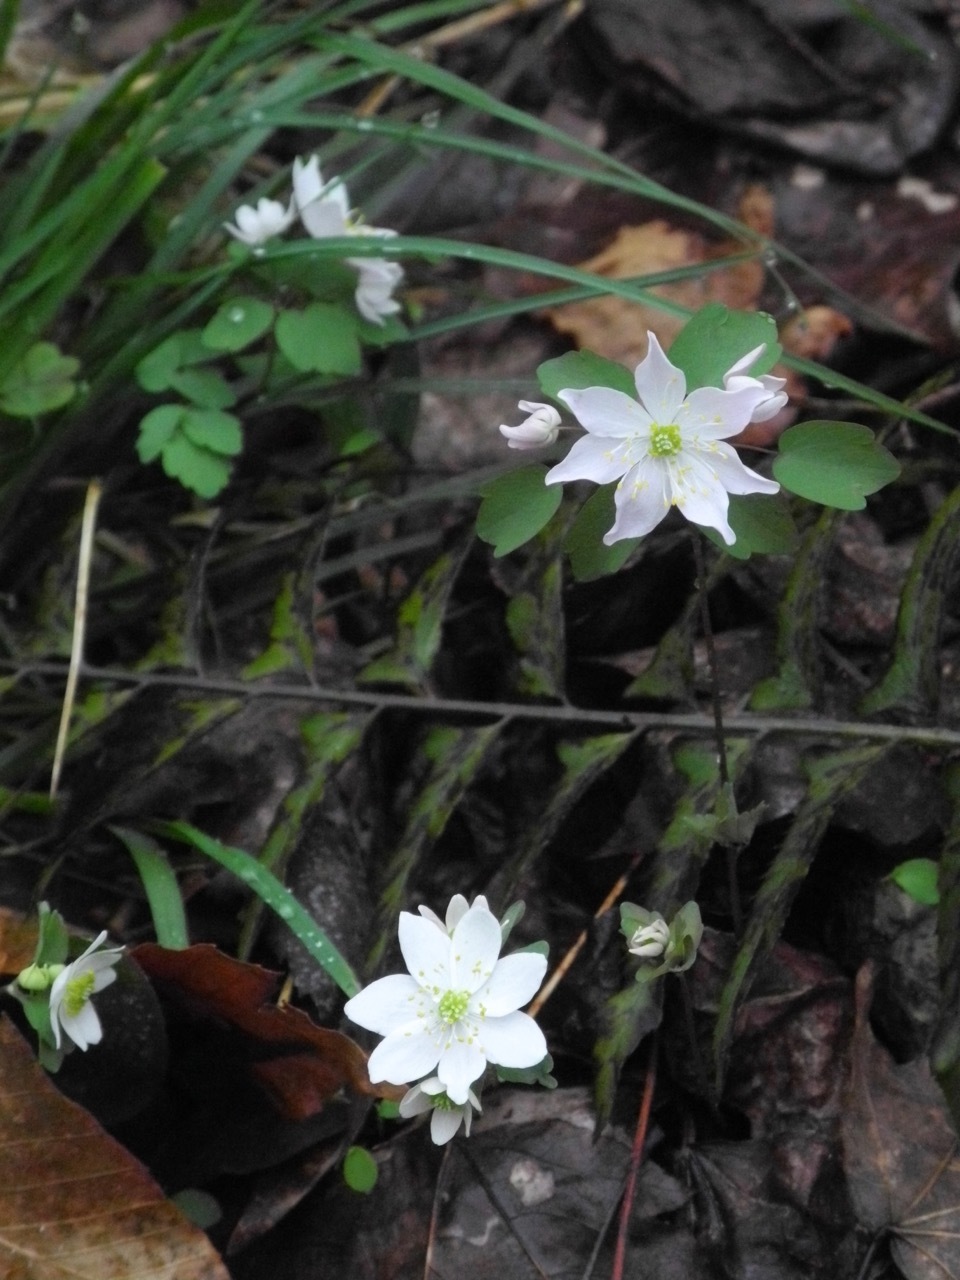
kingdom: Plantae
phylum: Tracheophyta
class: Magnoliopsida
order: Ranunculales
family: Ranunculaceae
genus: Thalictrum
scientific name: Thalictrum thalictroides
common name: Rue-anemone
